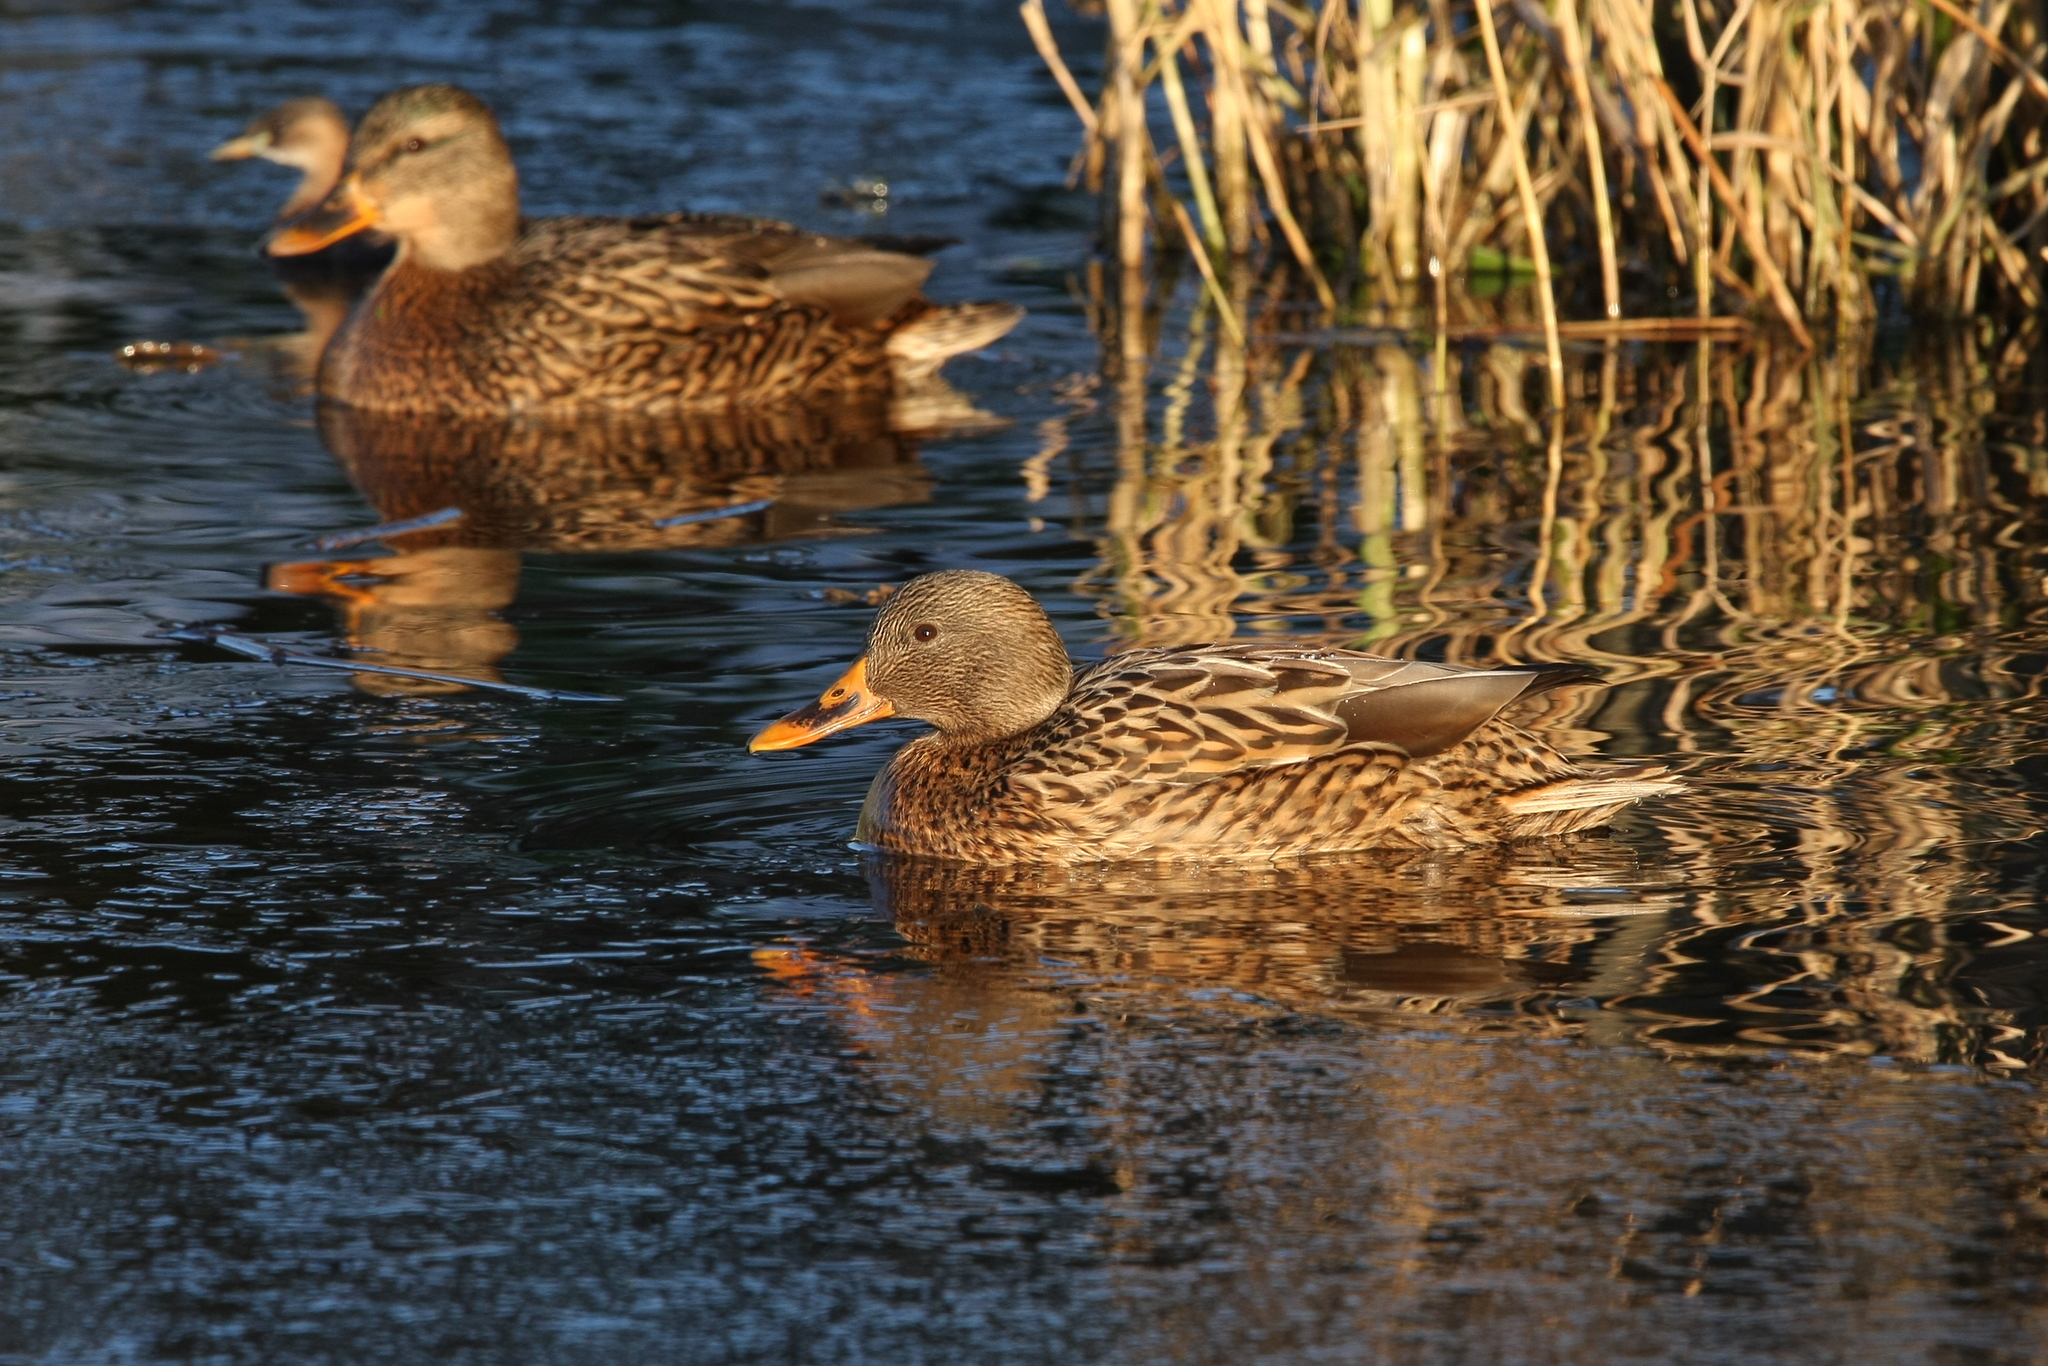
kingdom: Animalia
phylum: Chordata
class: Aves
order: Anseriformes
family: Anatidae
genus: Anas
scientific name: Anas platyrhynchos
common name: Mallard
